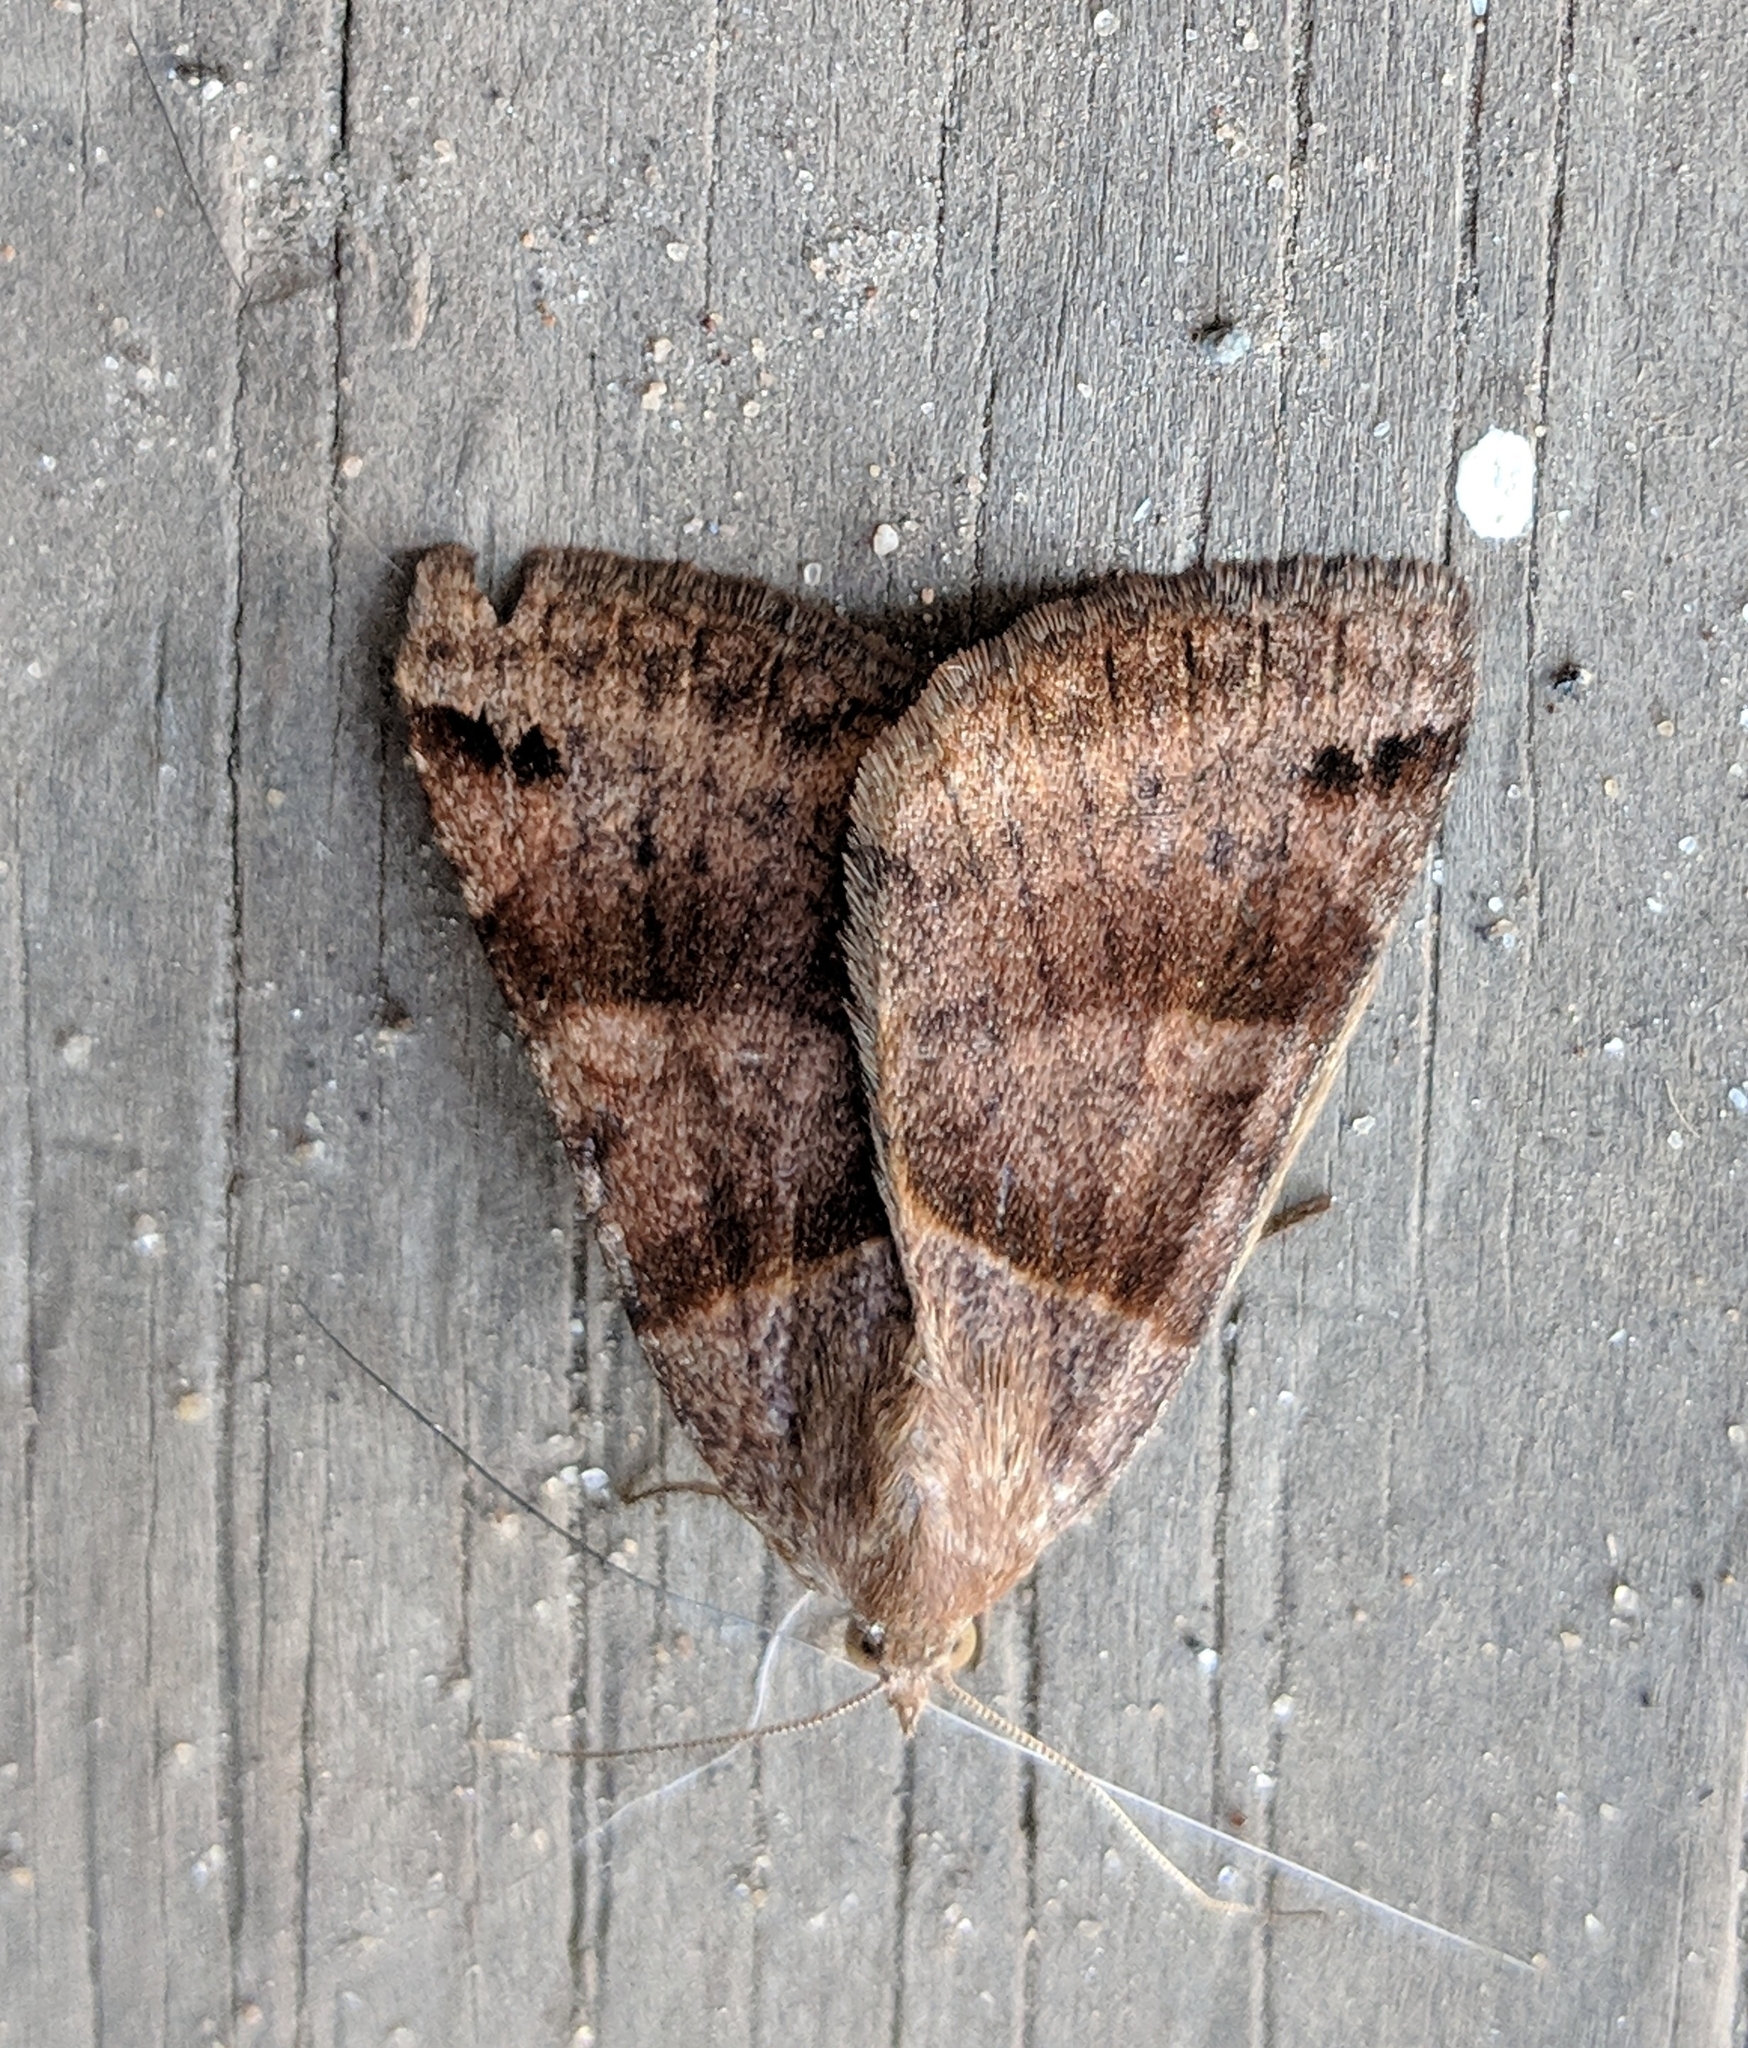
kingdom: Animalia
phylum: Arthropoda
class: Insecta
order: Lepidoptera
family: Erebidae
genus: Caenurgina
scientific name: Caenurgina crassiuscula
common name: Double-barred
